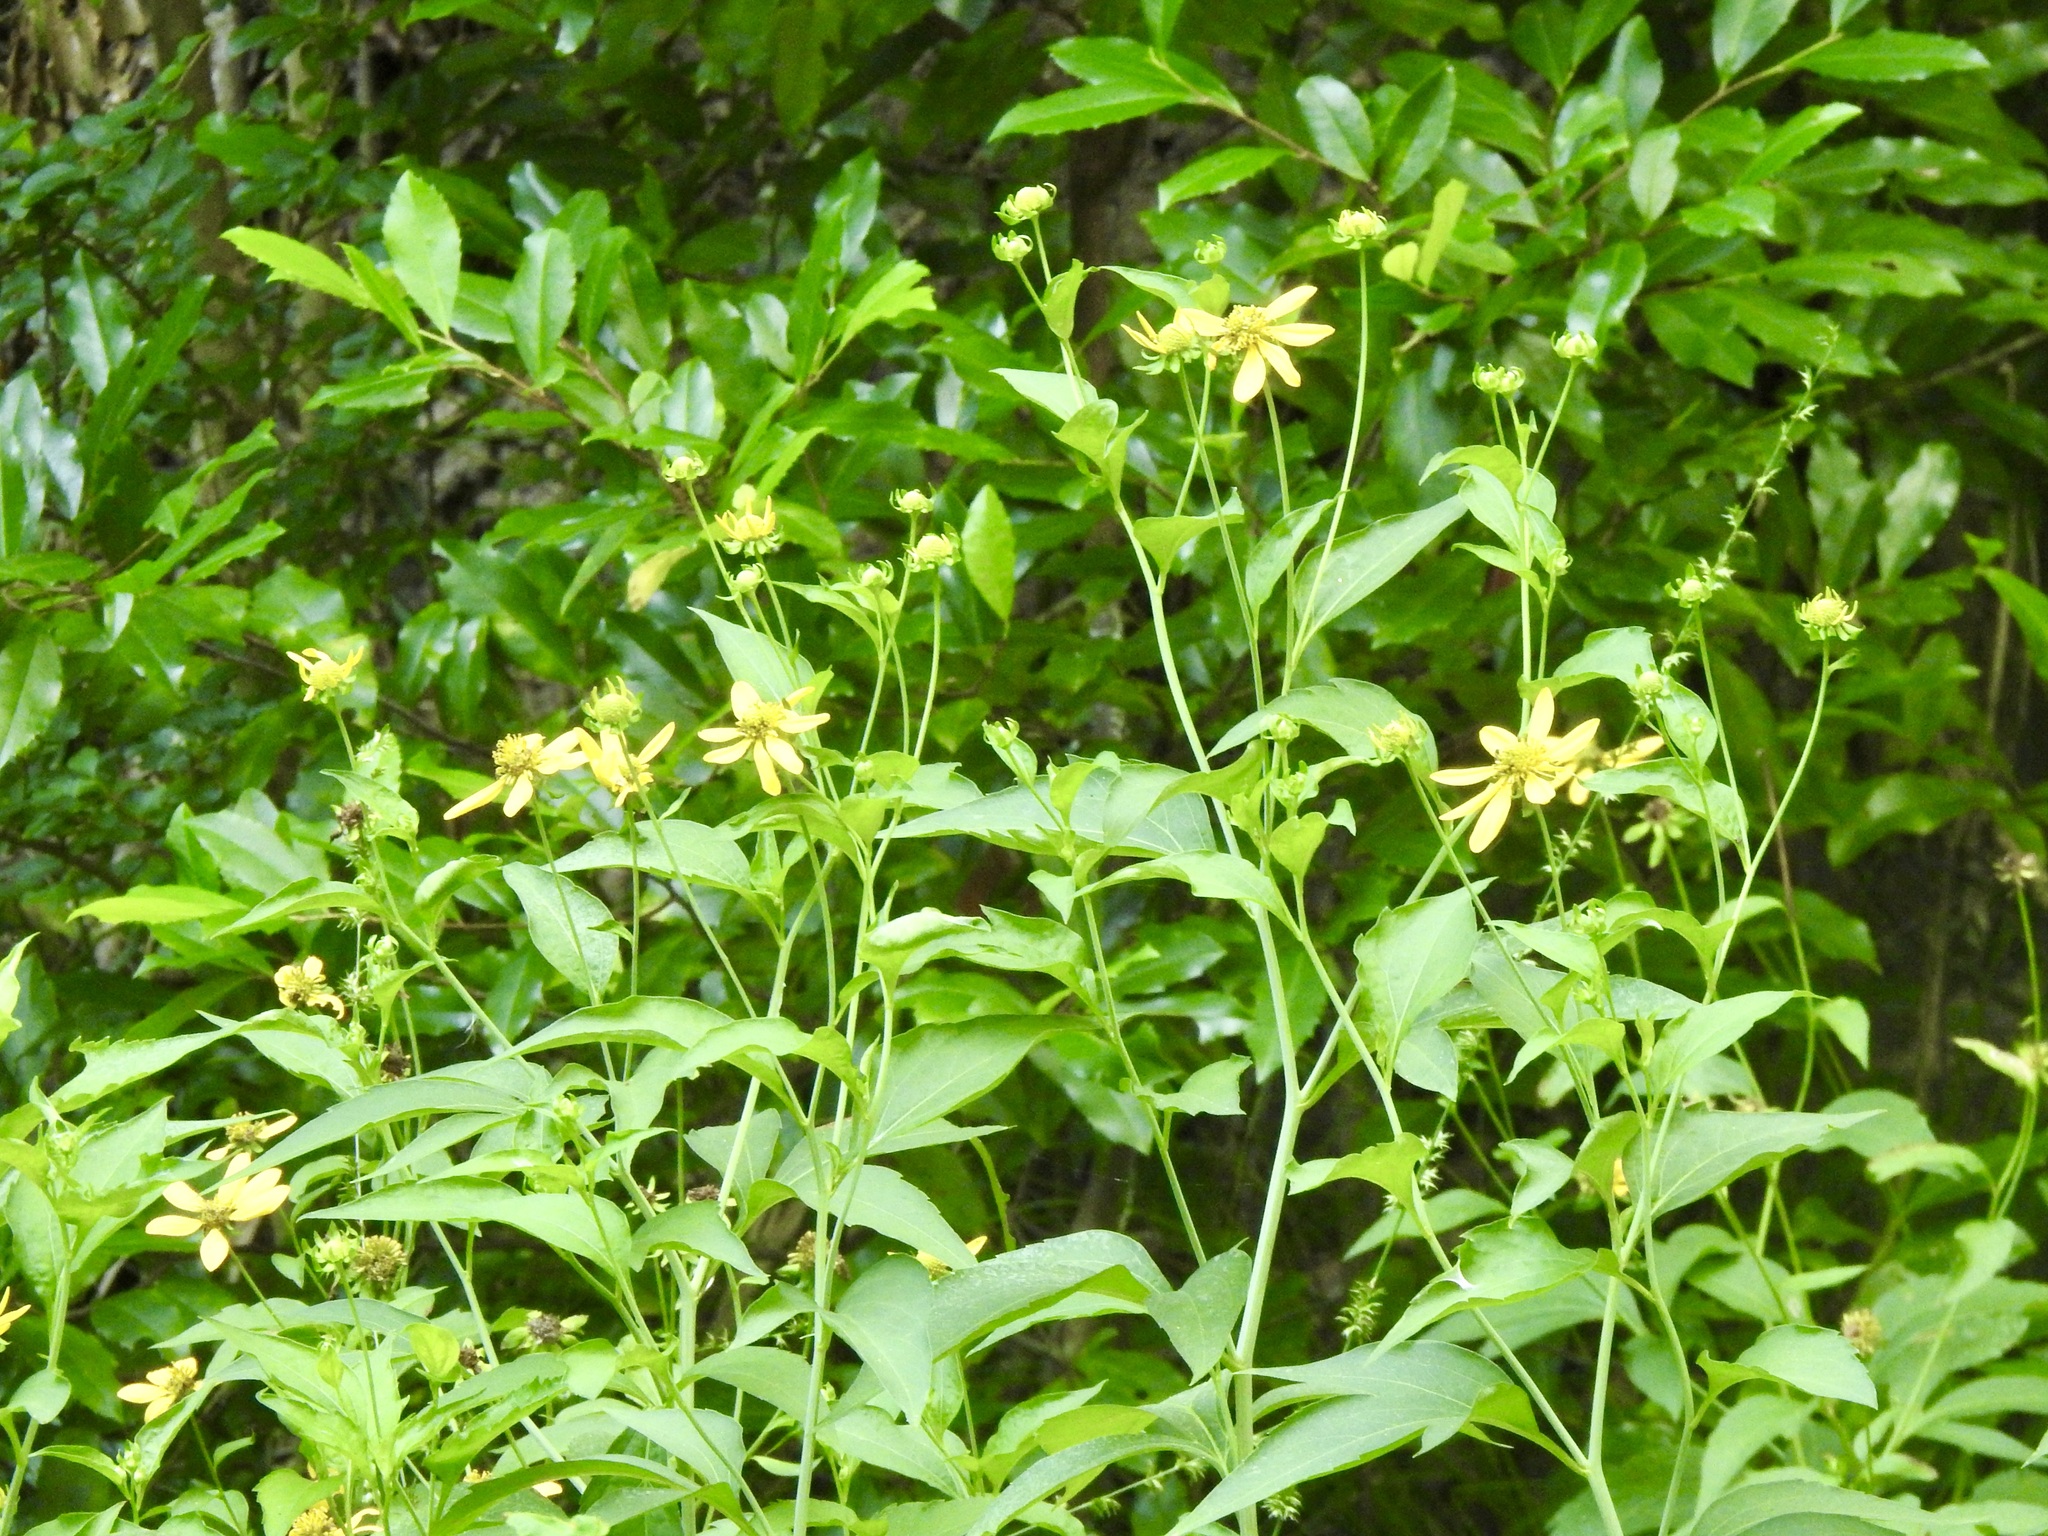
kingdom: Plantae
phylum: Tracheophyta
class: Magnoliopsida
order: Asterales
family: Asteraceae
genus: Rudbeckia
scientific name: Rudbeckia laciniata
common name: Coneflower
